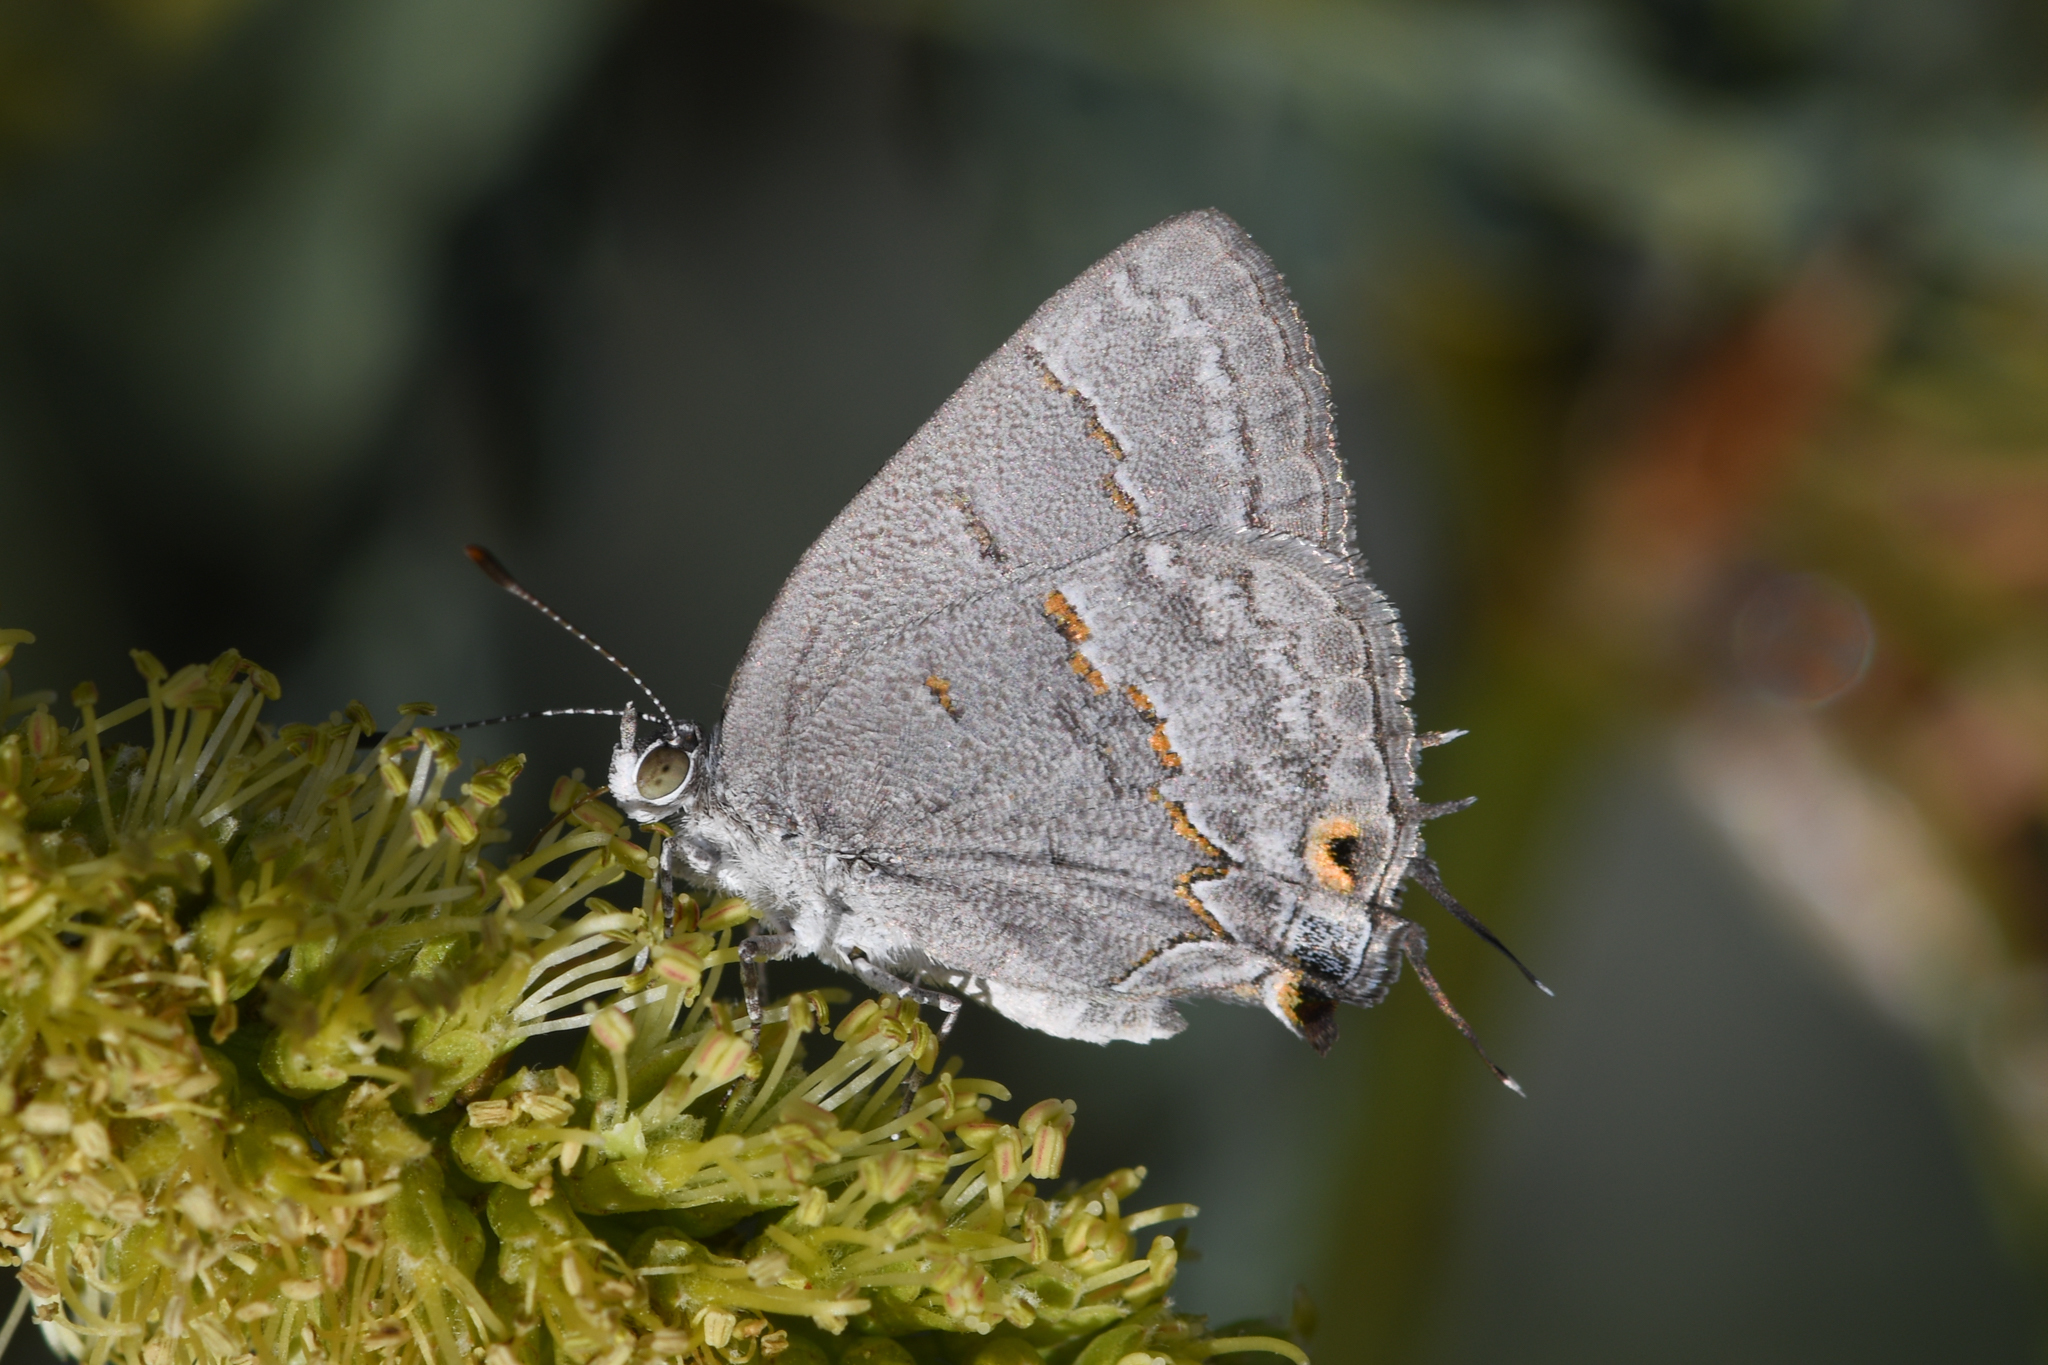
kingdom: Animalia
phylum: Arthropoda
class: Insecta
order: Lepidoptera
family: Lycaenidae
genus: Ministrymon
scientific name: Ministrymon leda
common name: Leda ministreak
